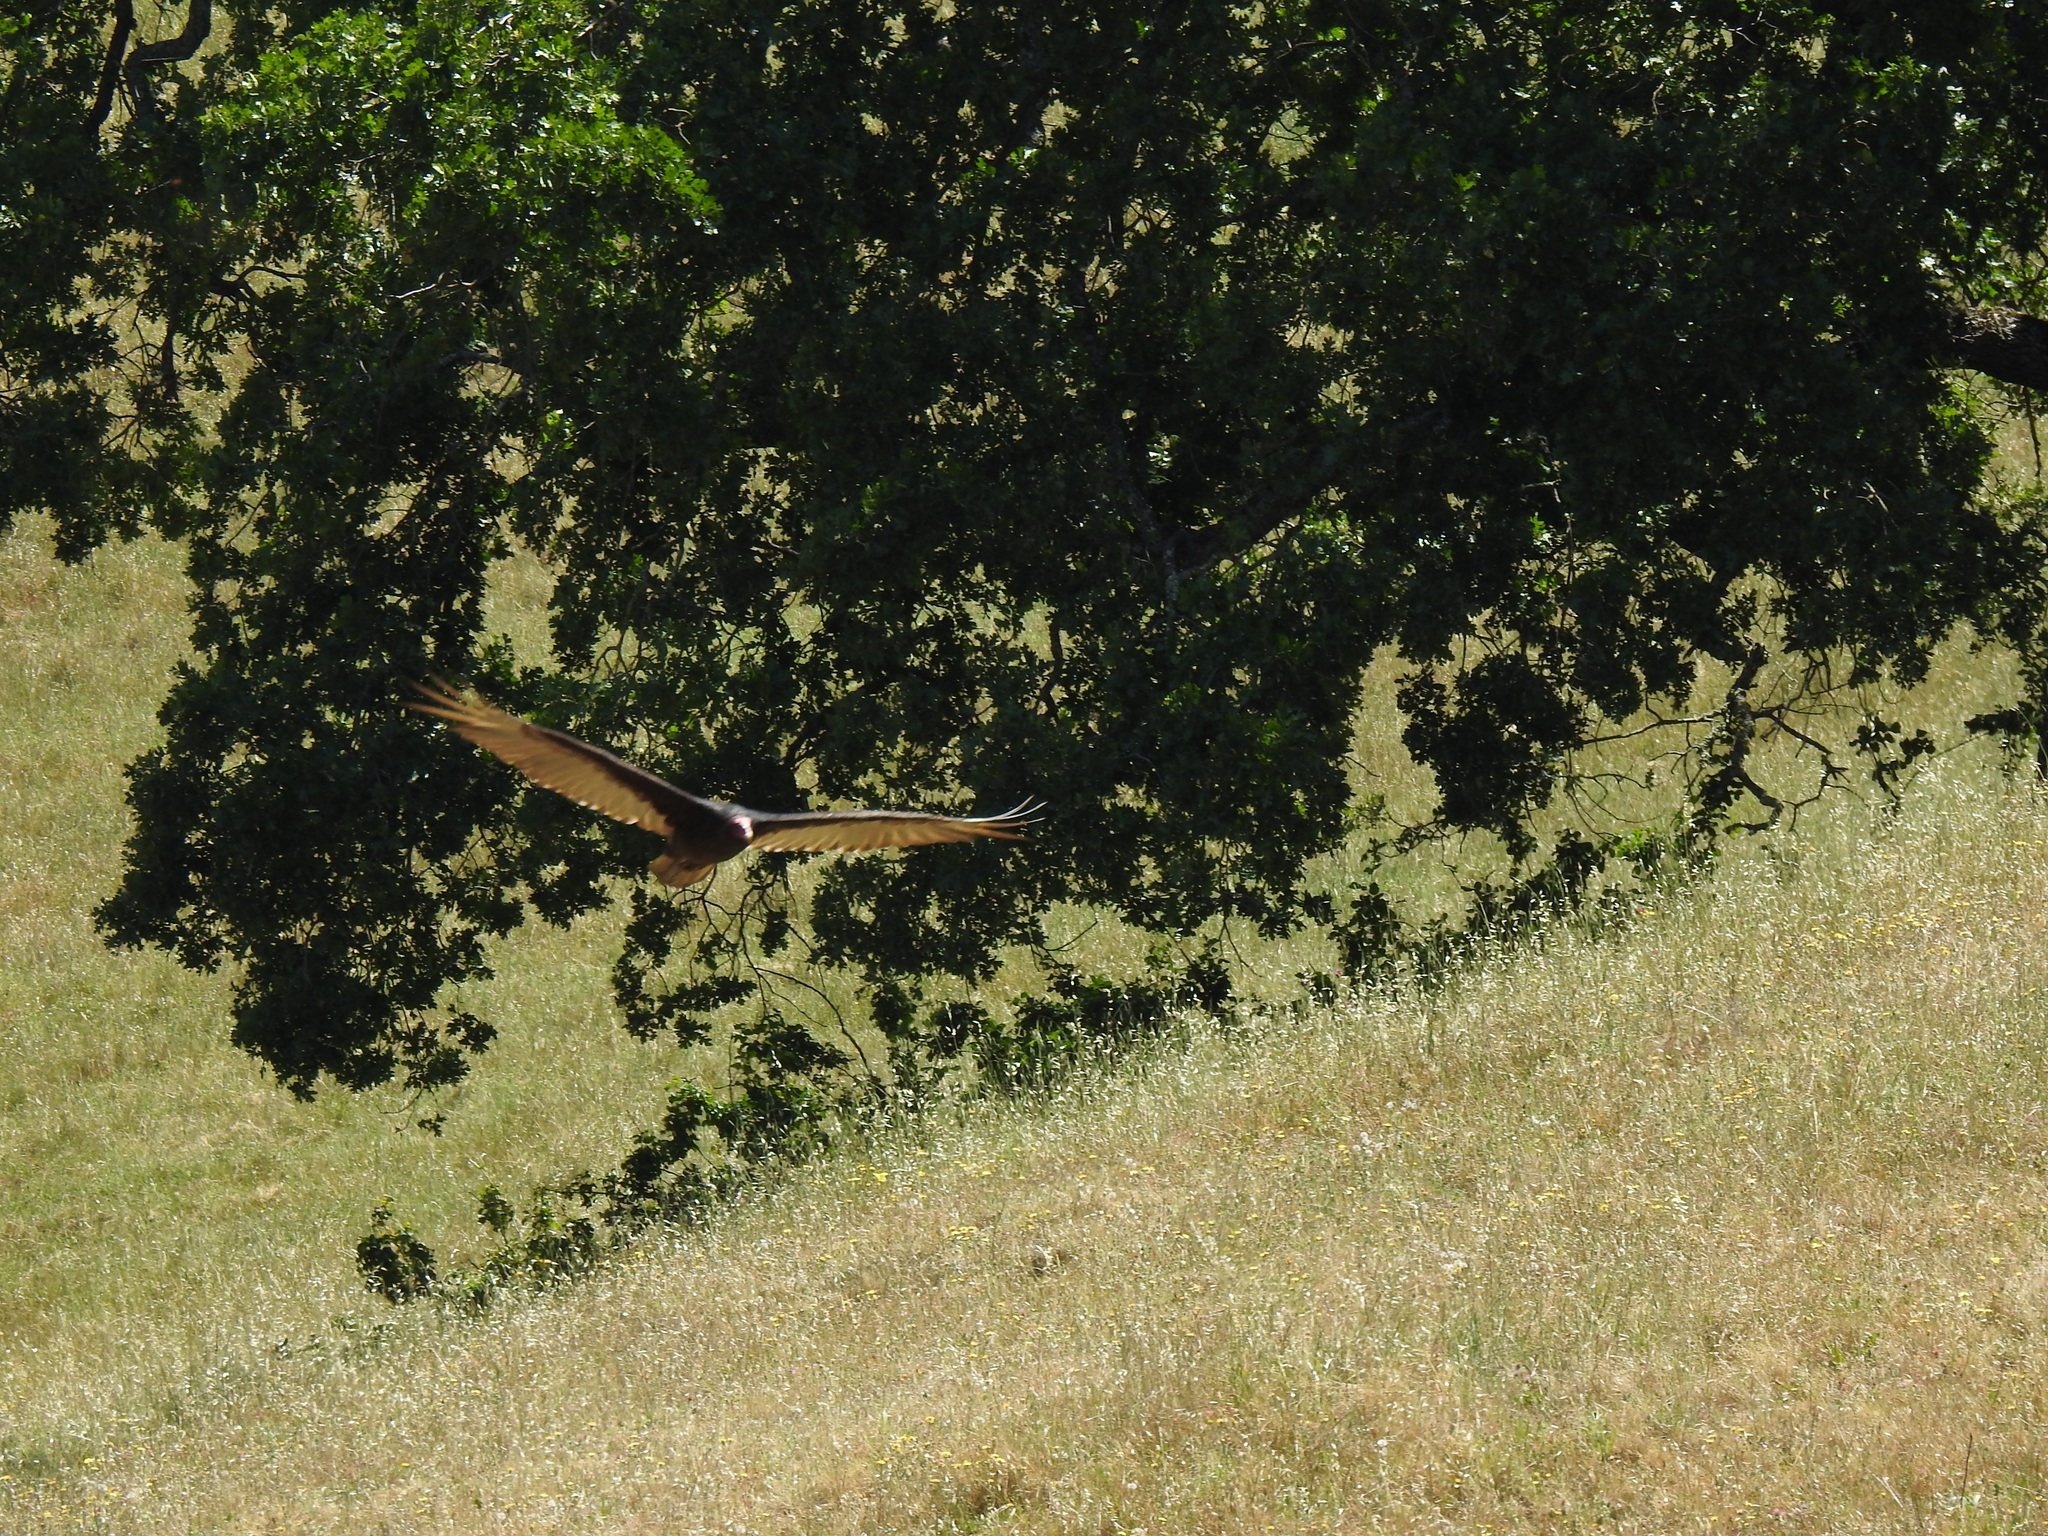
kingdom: Animalia
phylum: Chordata
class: Aves
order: Accipitriformes
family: Cathartidae
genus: Cathartes
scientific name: Cathartes aura
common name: Turkey vulture
